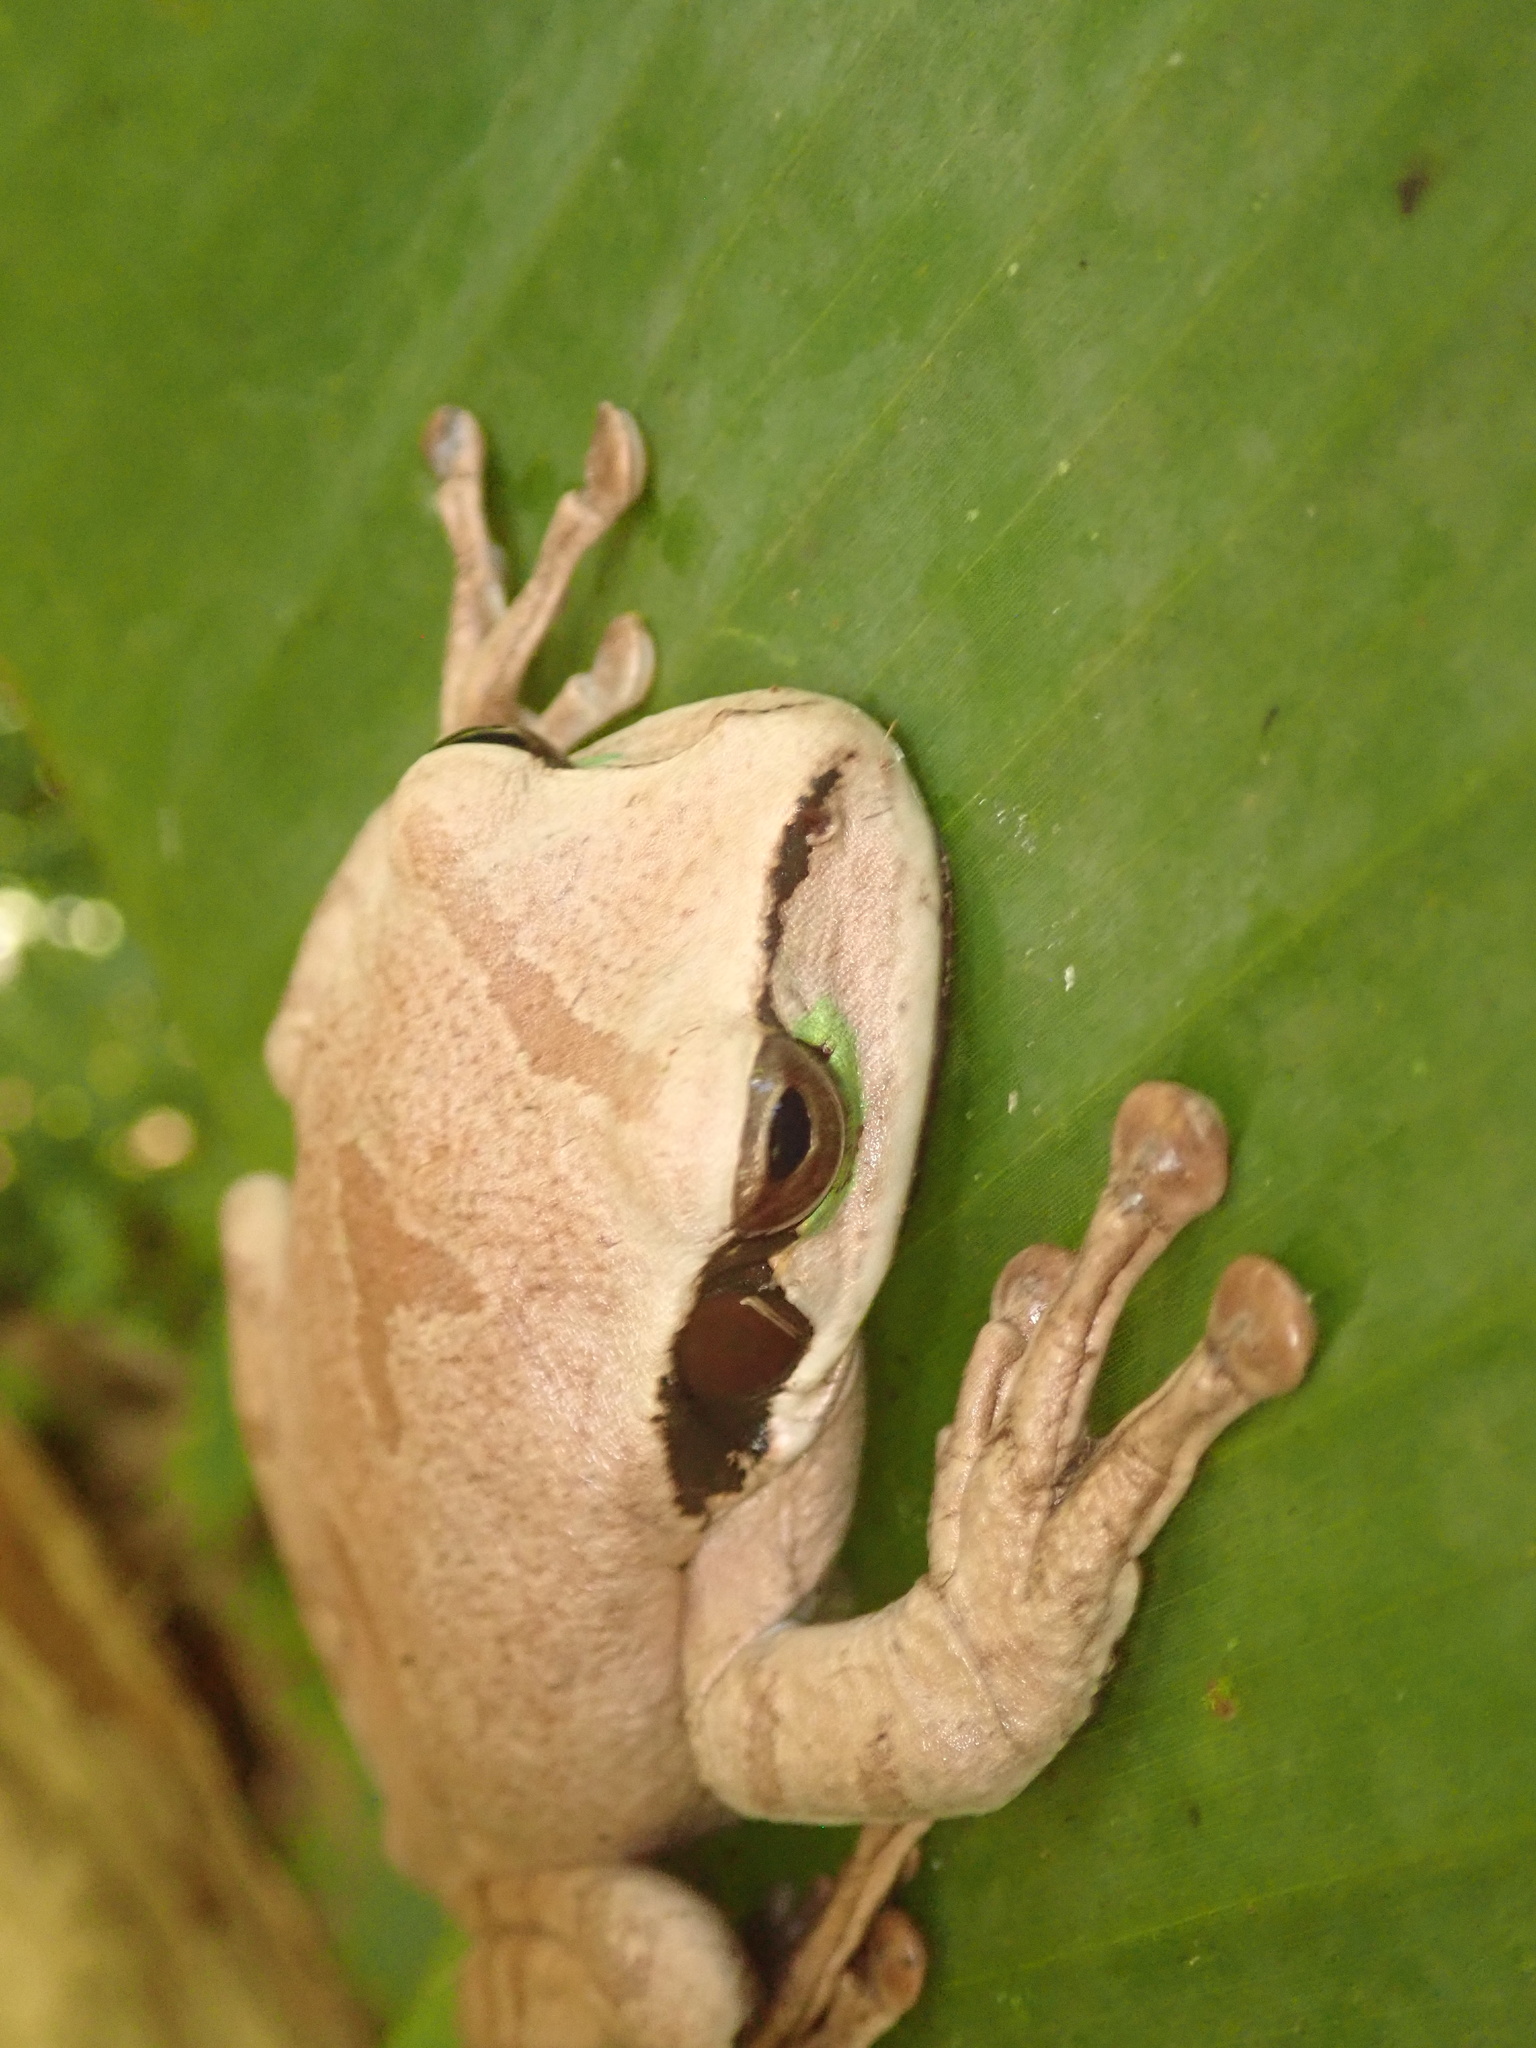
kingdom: Animalia
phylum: Chordata
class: Amphibia
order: Anura
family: Hylidae
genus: Smilisca
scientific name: Smilisca phaeota
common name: Central american smilisca
